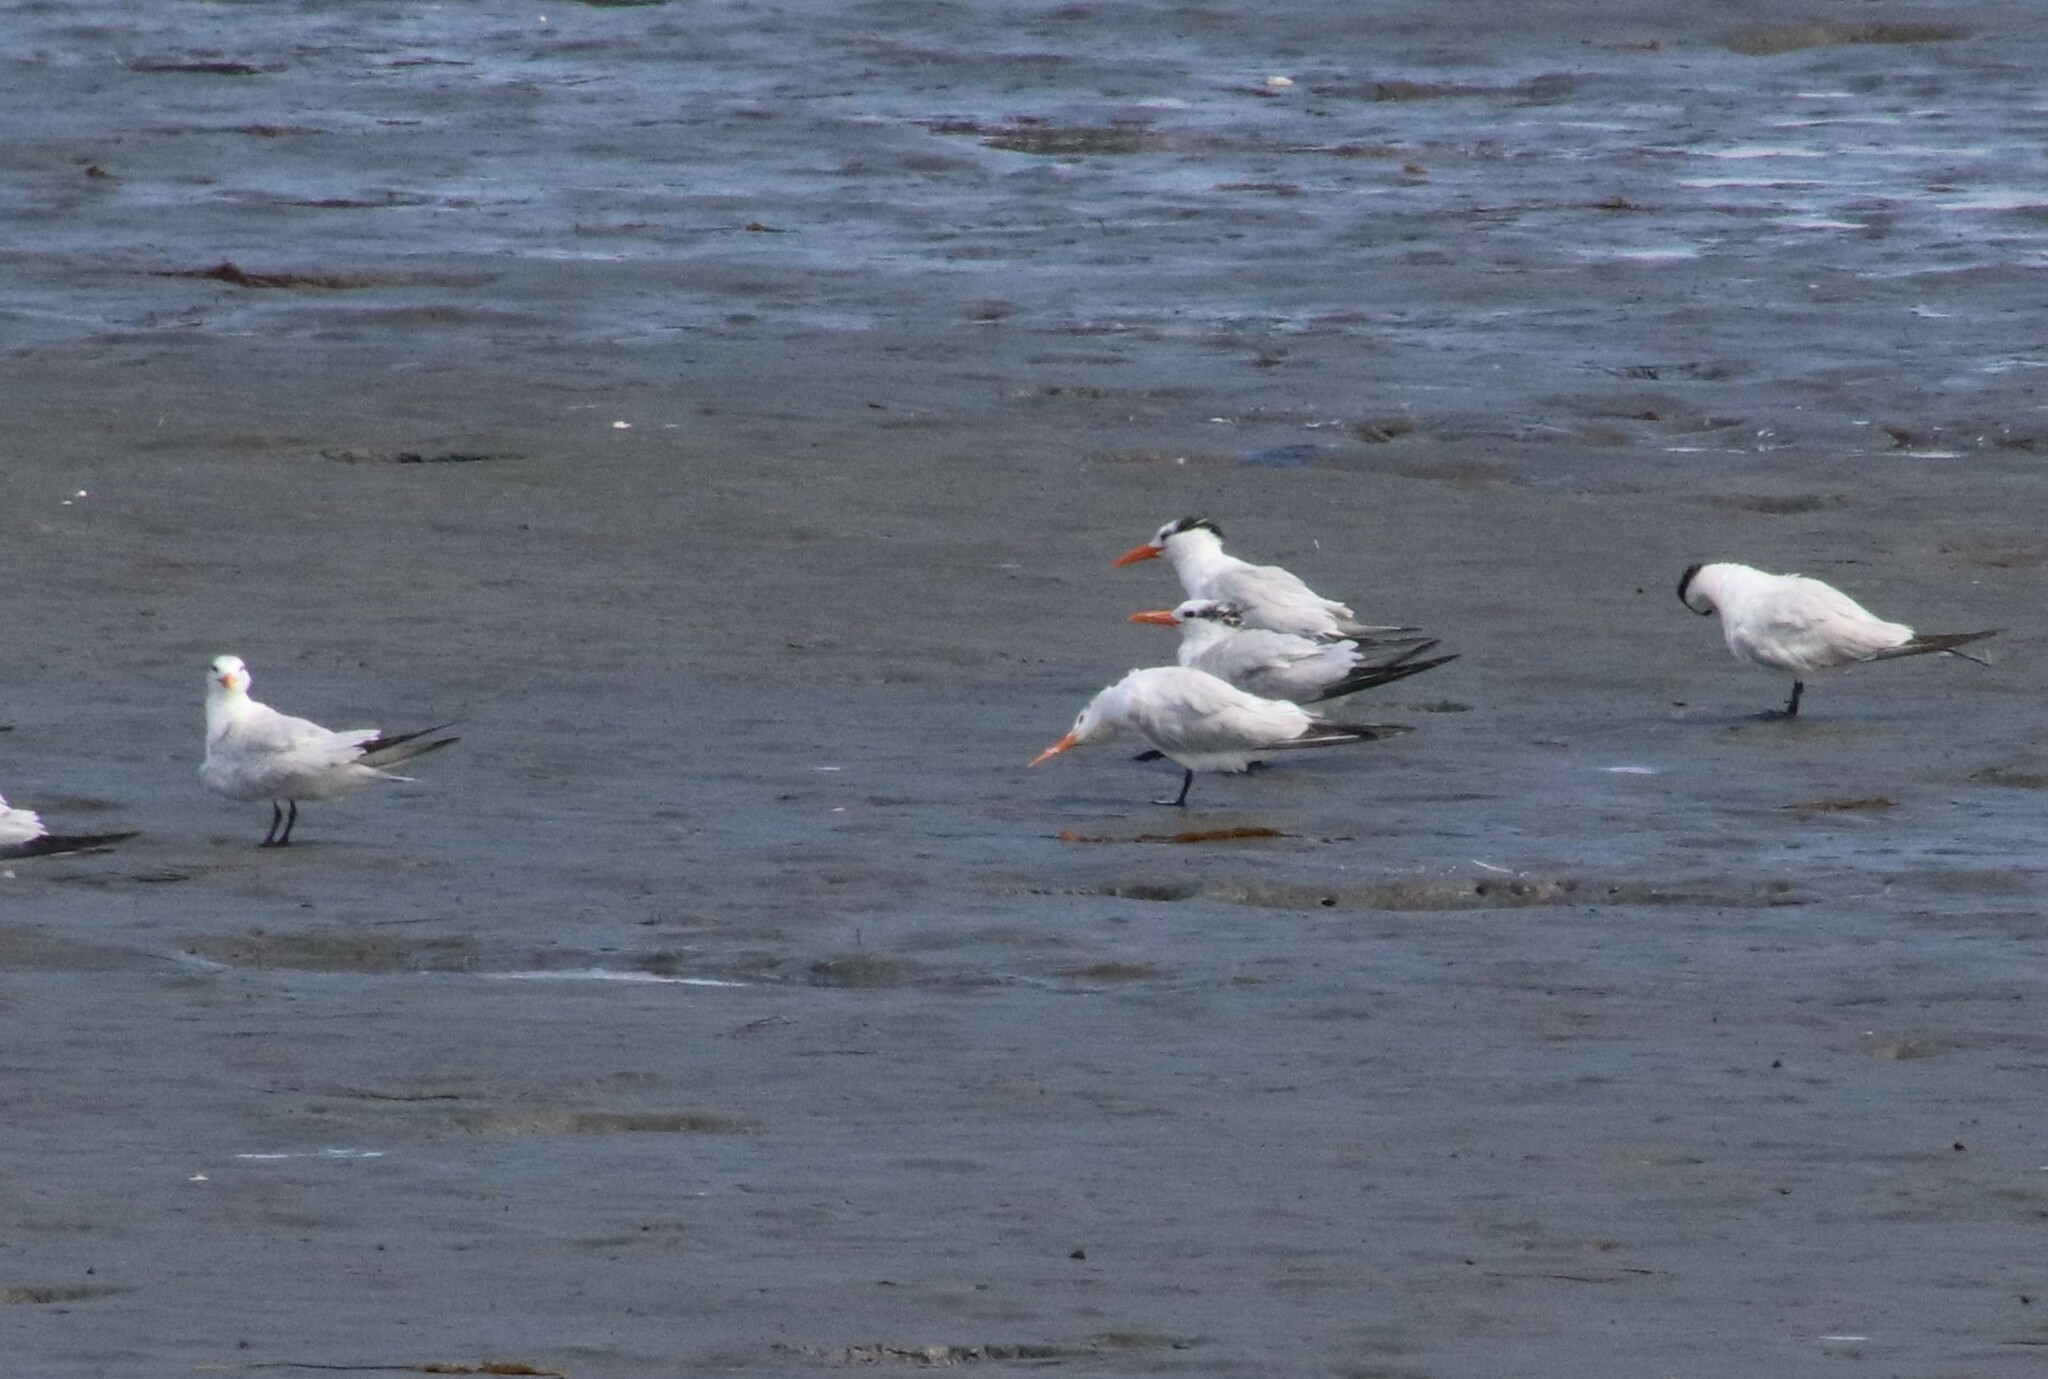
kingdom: Animalia
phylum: Chordata
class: Aves
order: Charadriiformes
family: Laridae
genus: Thalasseus
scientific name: Thalasseus maximus
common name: Royal tern
